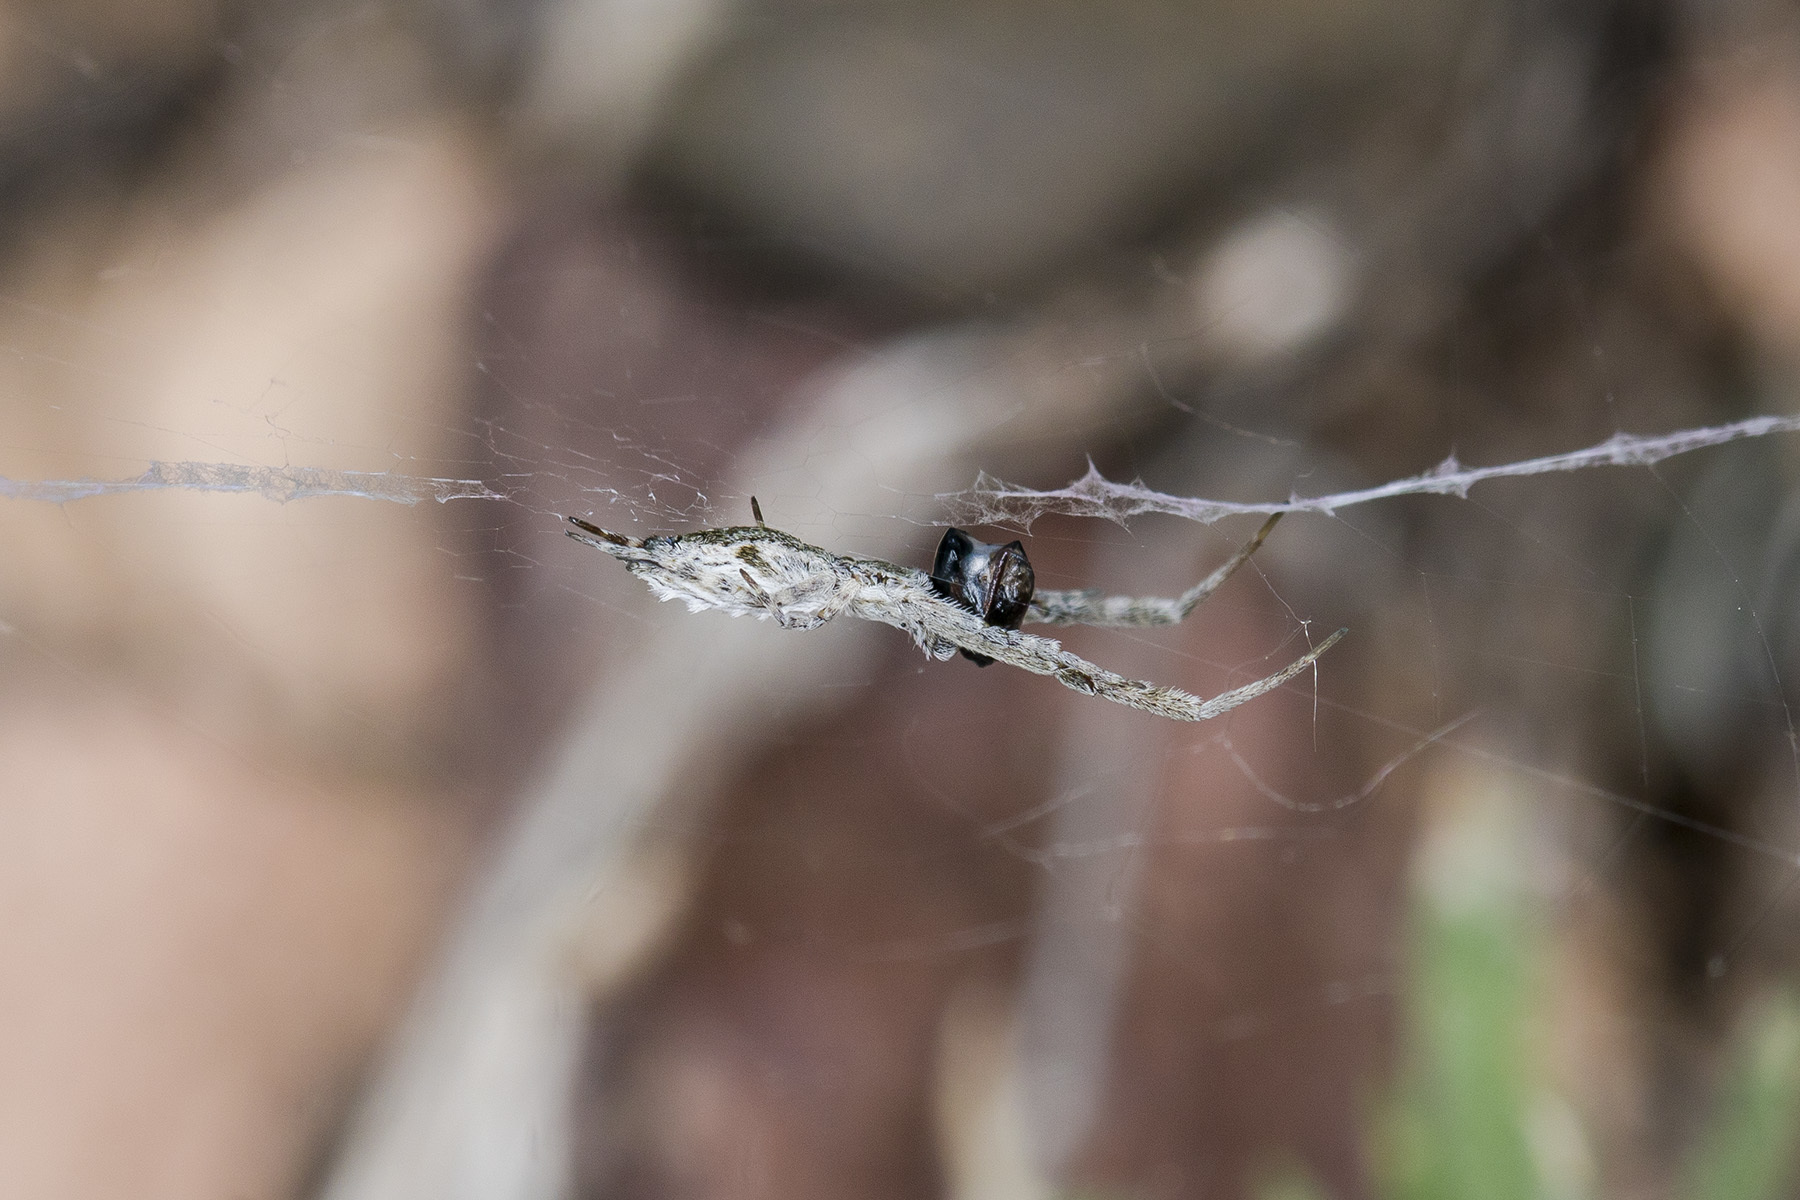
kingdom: Animalia
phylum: Arthropoda
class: Arachnida
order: Araneae
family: Uloboridae
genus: Uloborus
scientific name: Uloborus walckenaerius
